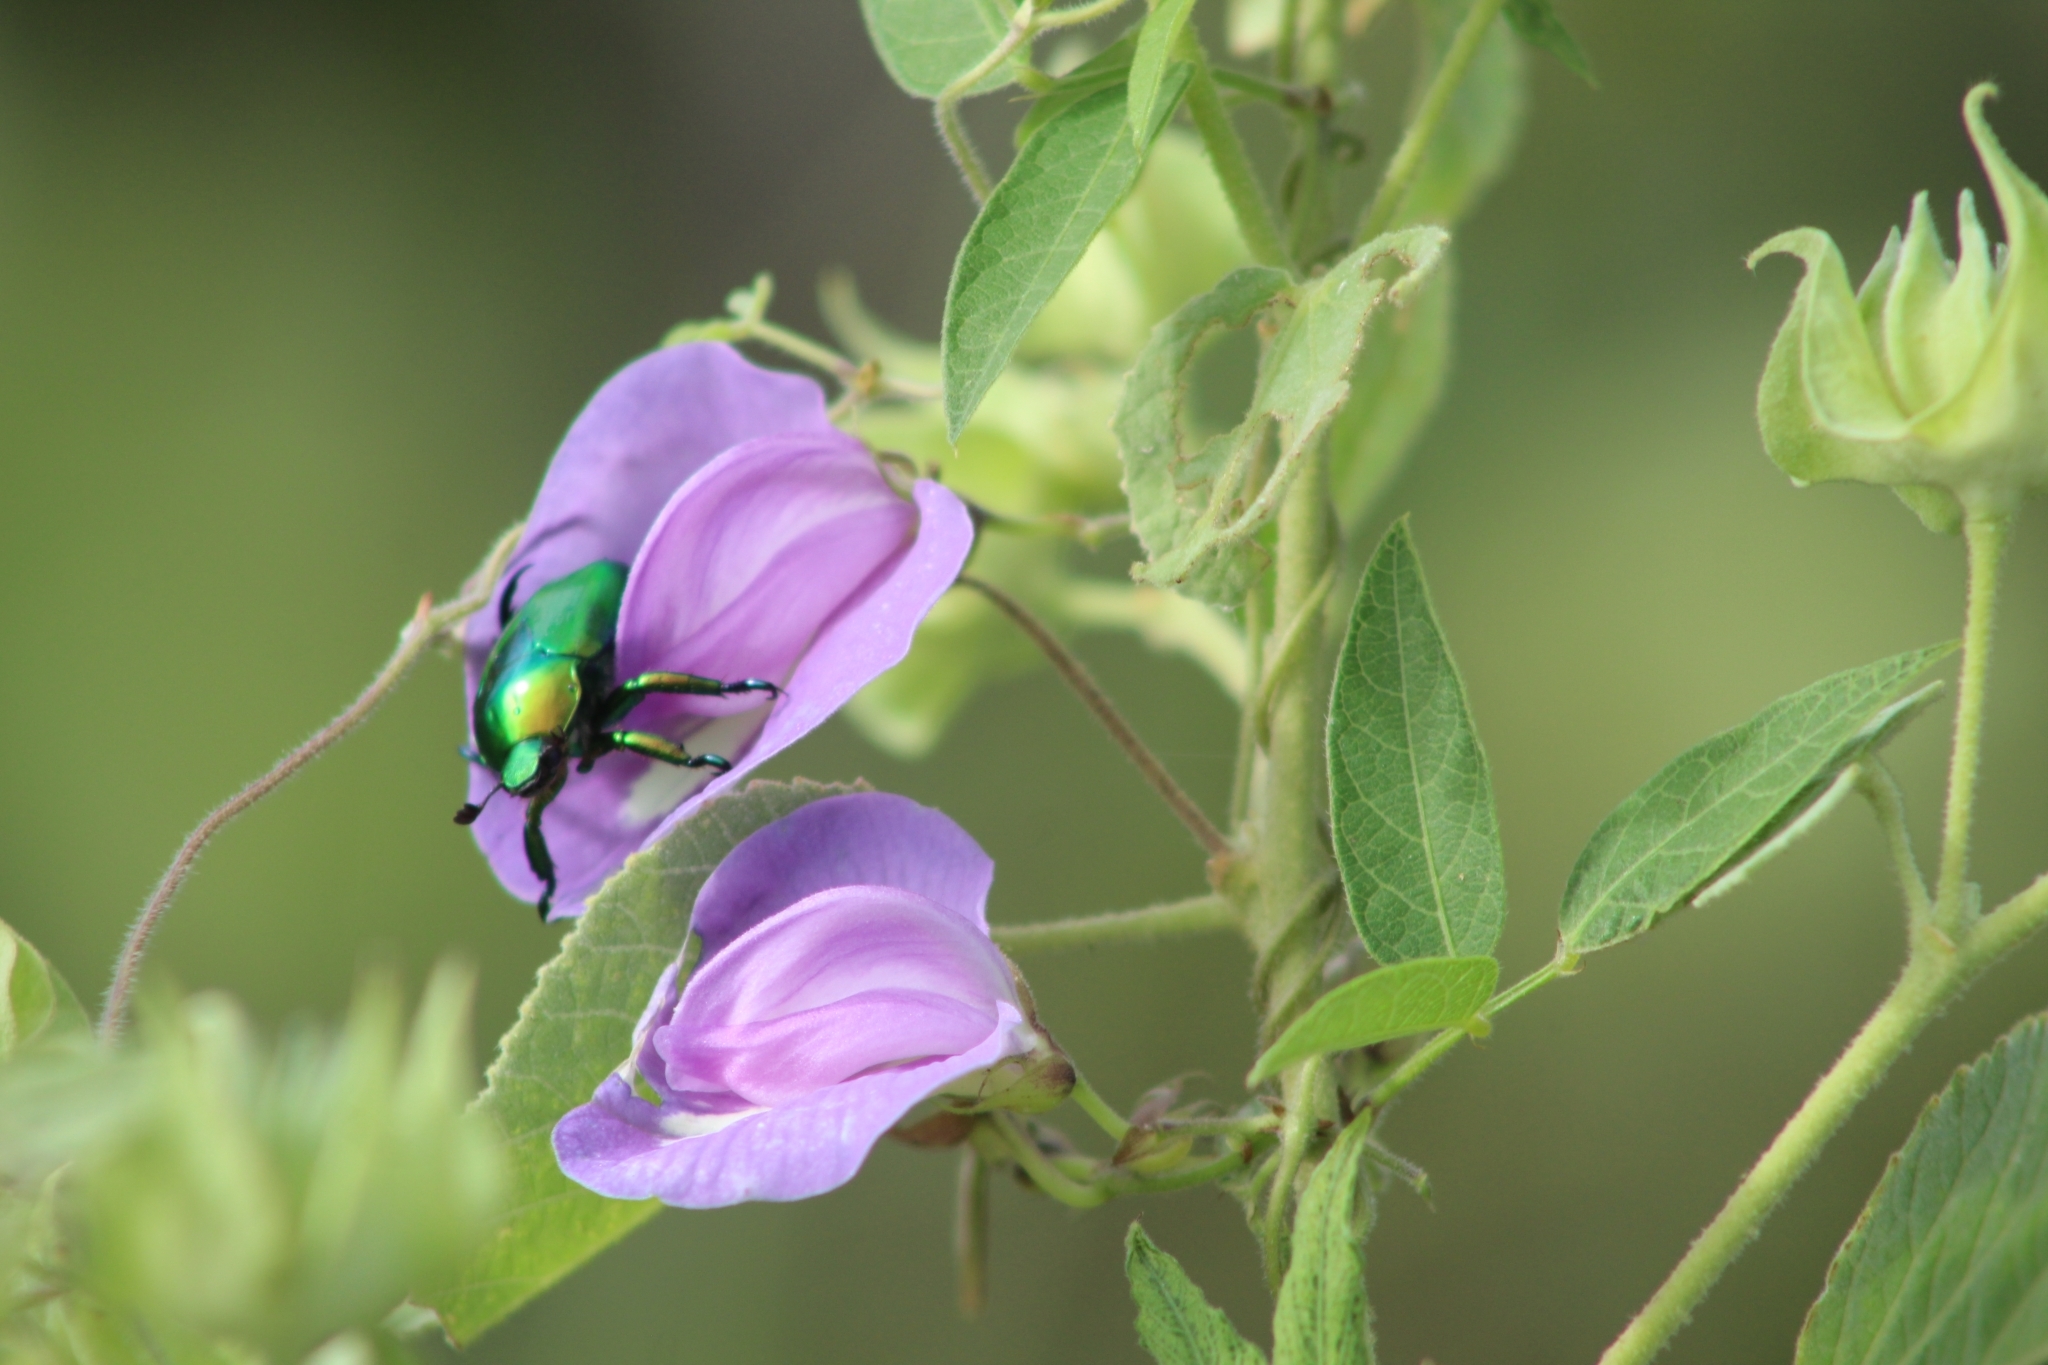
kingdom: Plantae
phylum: Tracheophyta
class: Magnoliopsida
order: Fabales
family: Fabaceae
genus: Centrosema
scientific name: Centrosema virginianum
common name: Butterfly-pea
